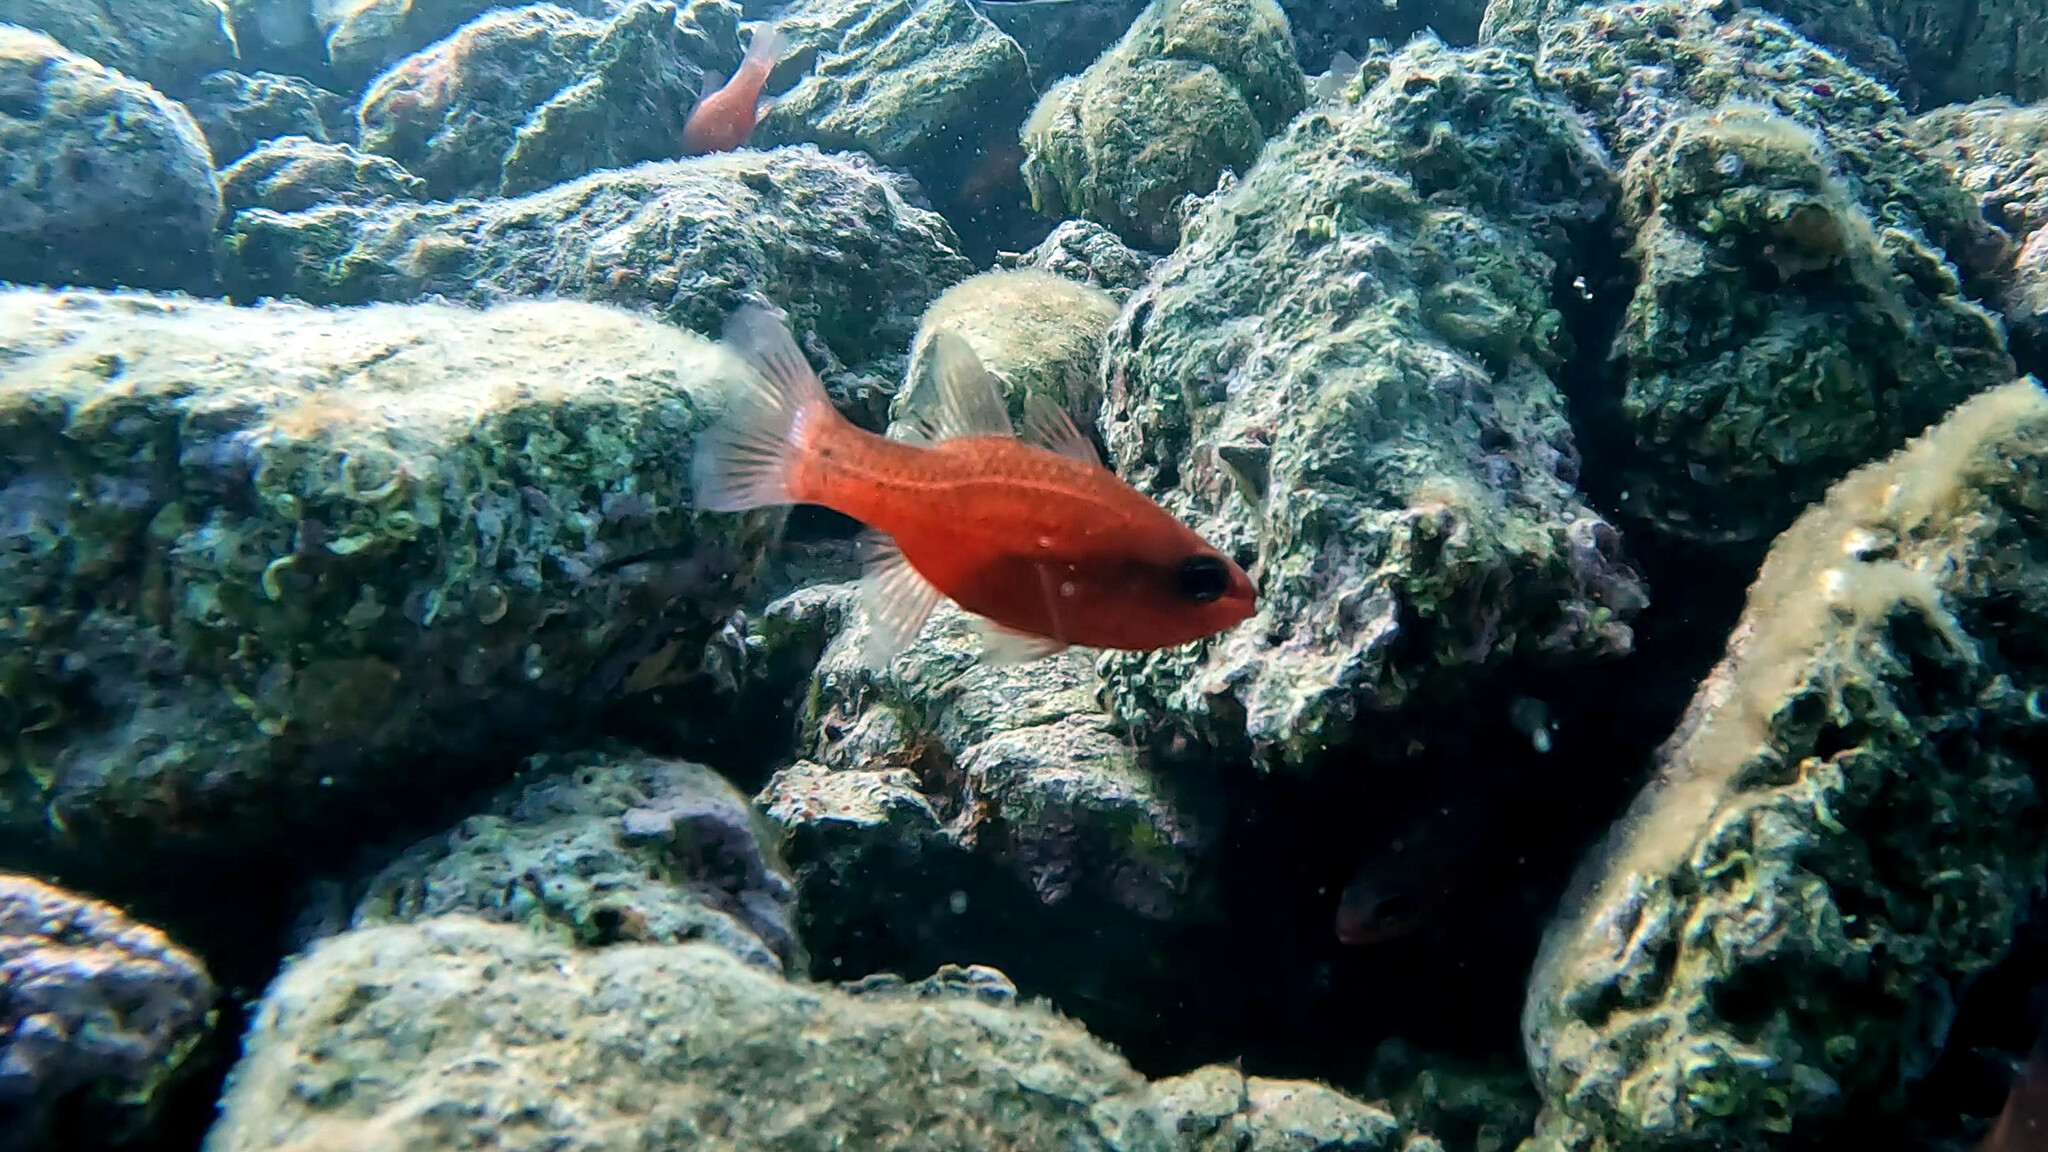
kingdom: Animalia
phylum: Chordata
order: Perciformes
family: Apogonidae
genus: Apogon
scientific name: Apogon imberbis
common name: Cardinal fish
